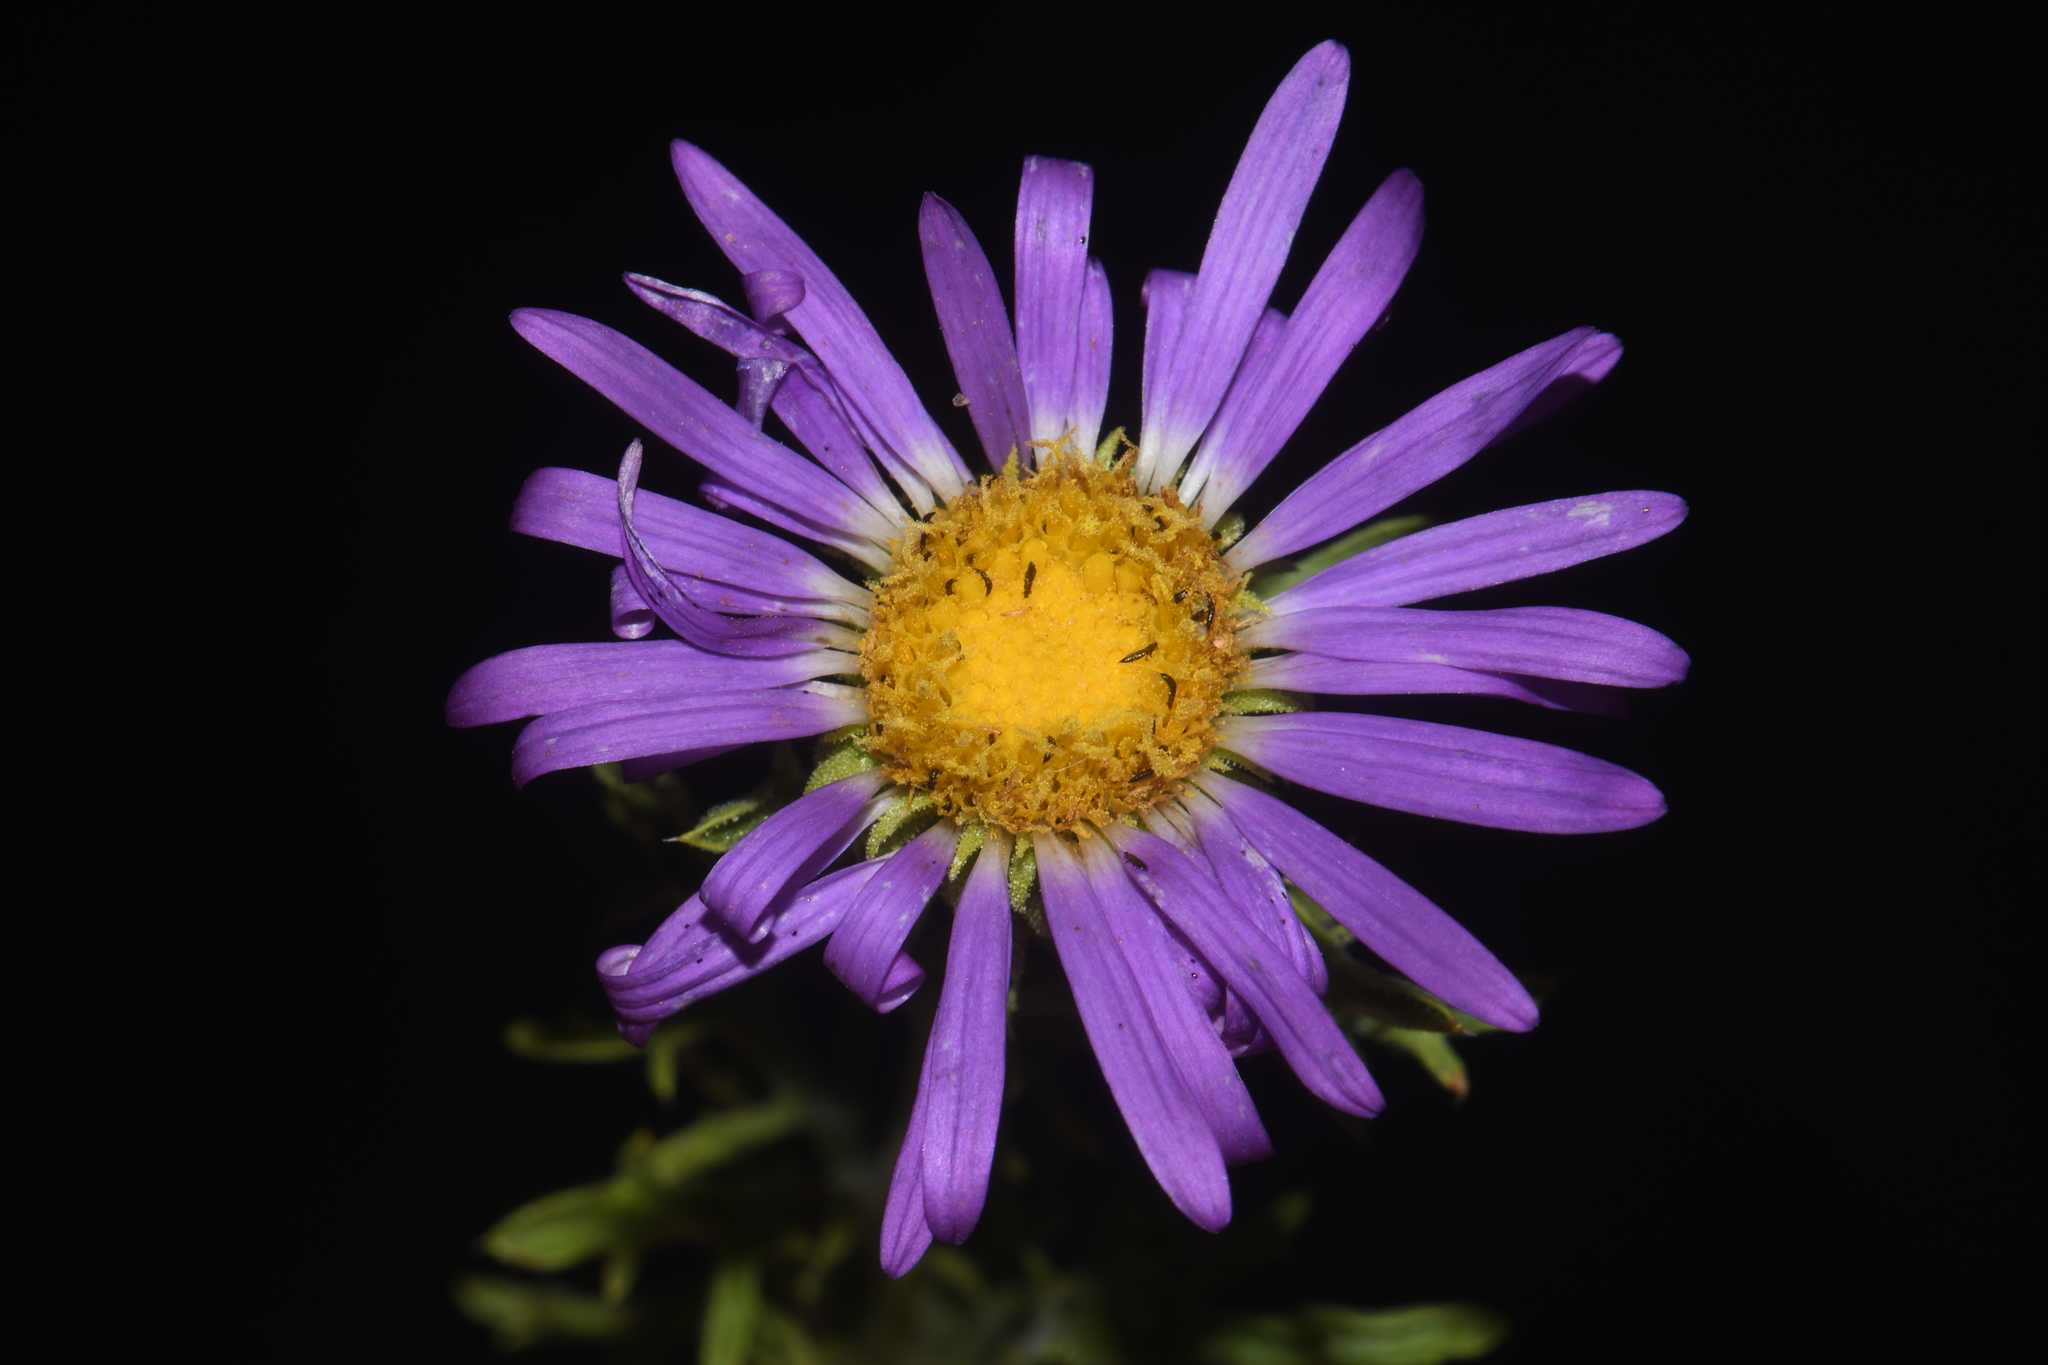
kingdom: Plantae
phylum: Tracheophyta
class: Magnoliopsida
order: Asterales
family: Asteraceae
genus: Machaeranthera
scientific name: Machaeranthera tanacetifolia
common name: Tansy-aster
